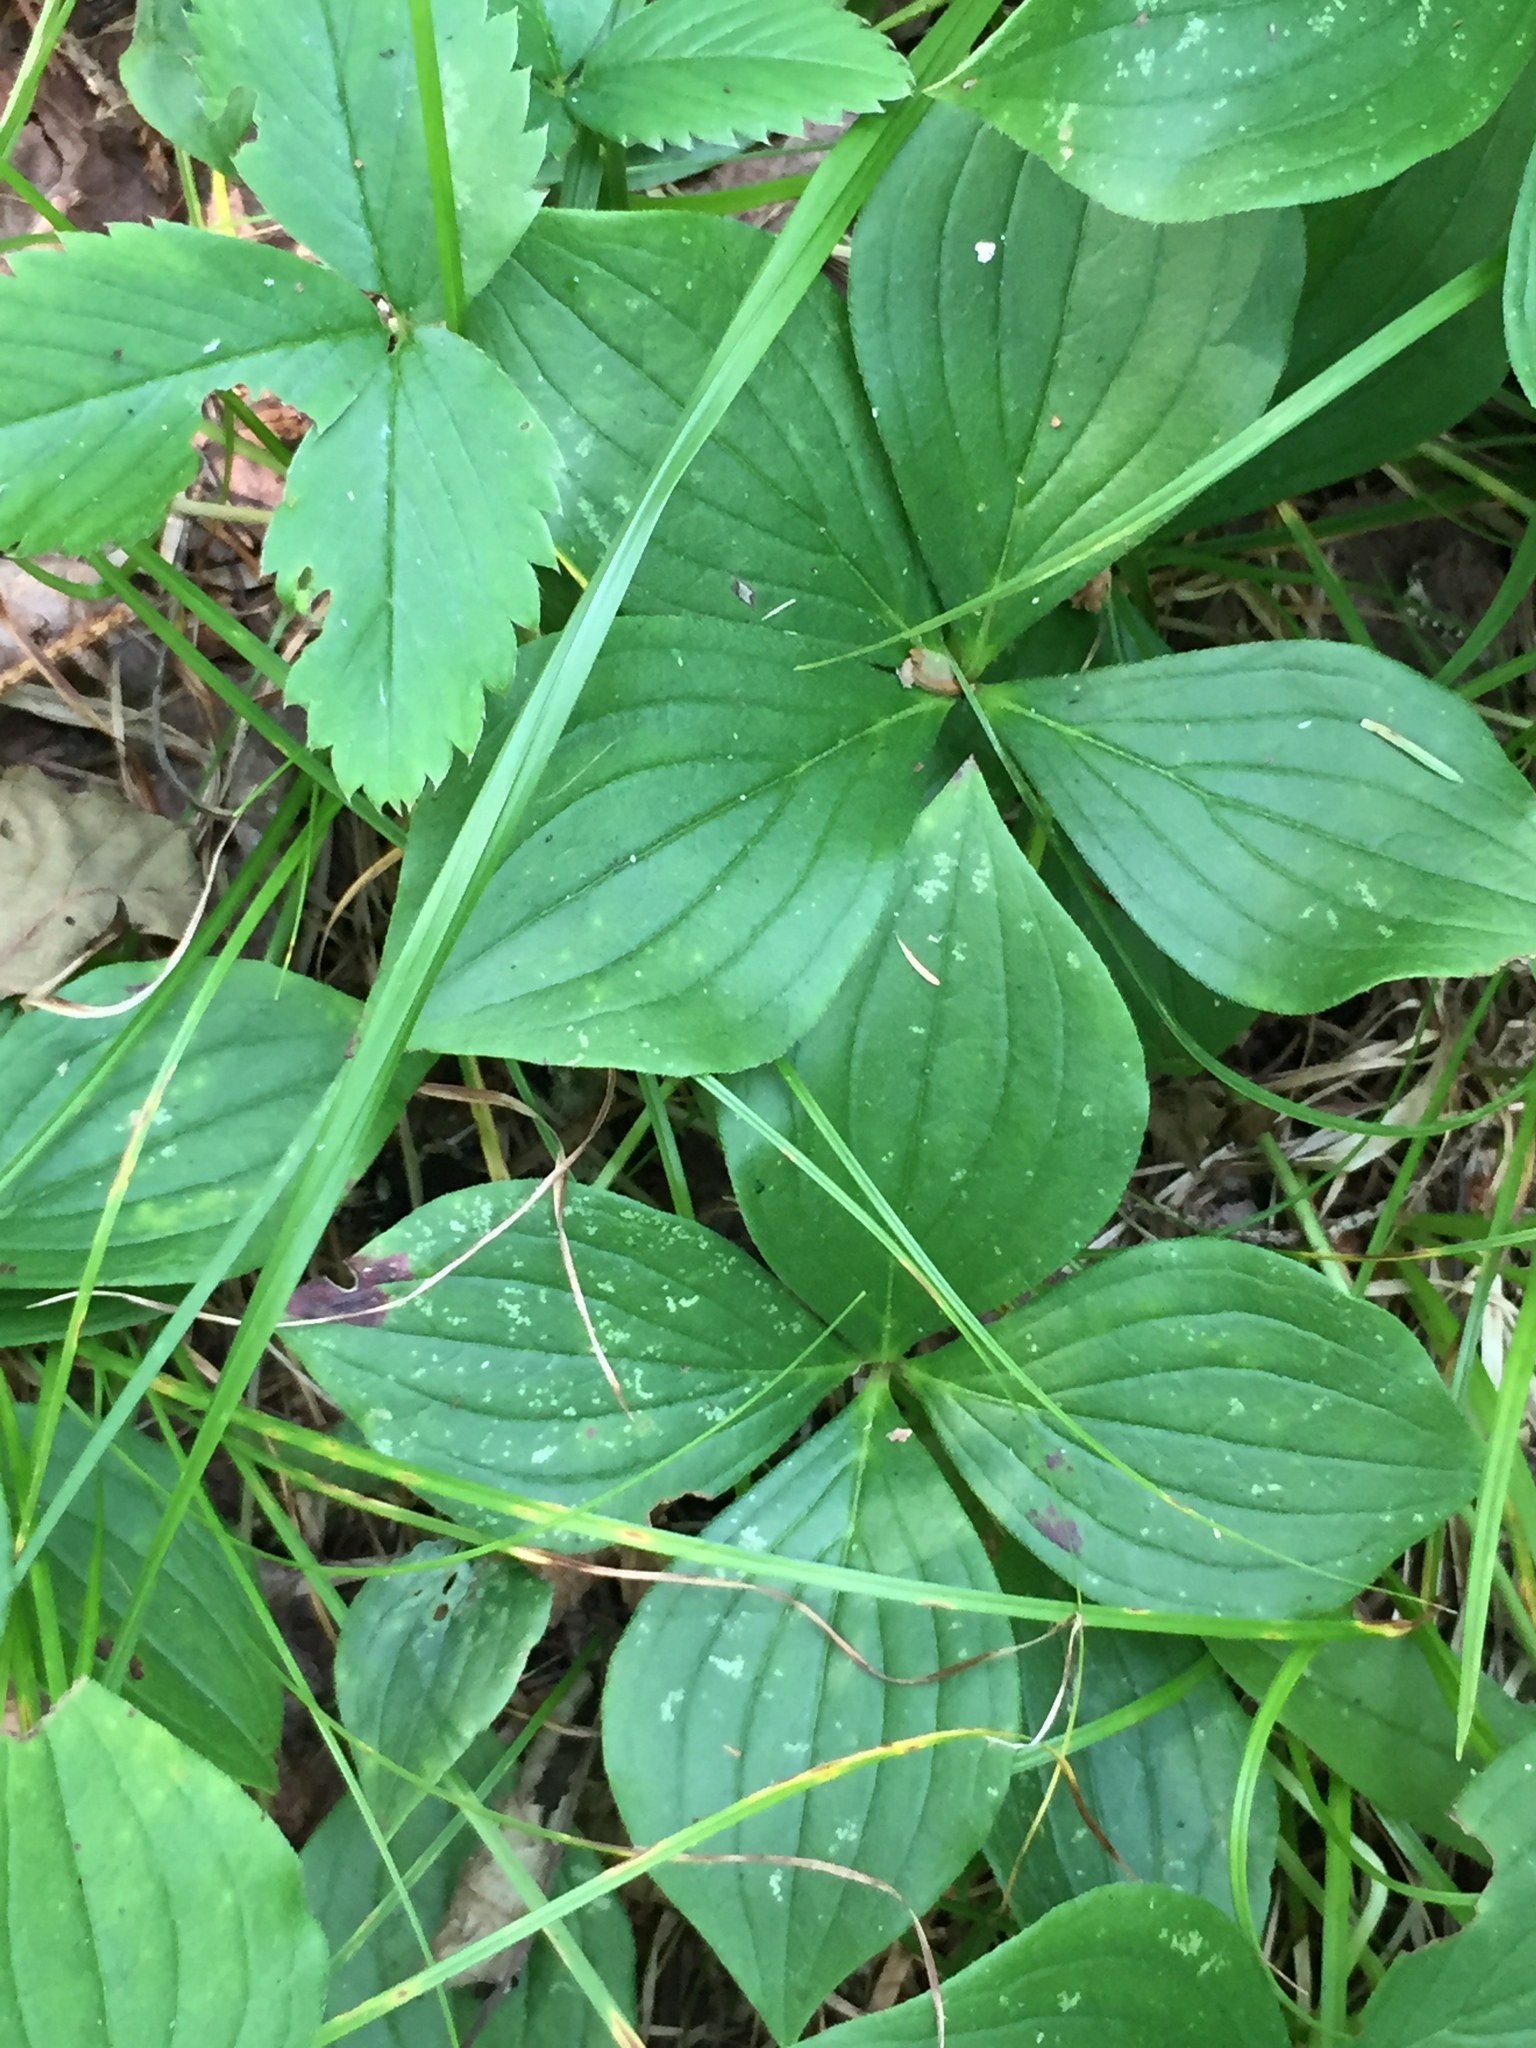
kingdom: Plantae
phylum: Tracheophyta
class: Magnoliopsida
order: Cornales
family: Cornaceae
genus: Cornus
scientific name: Cornus canadensis
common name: Creeping dogwood
